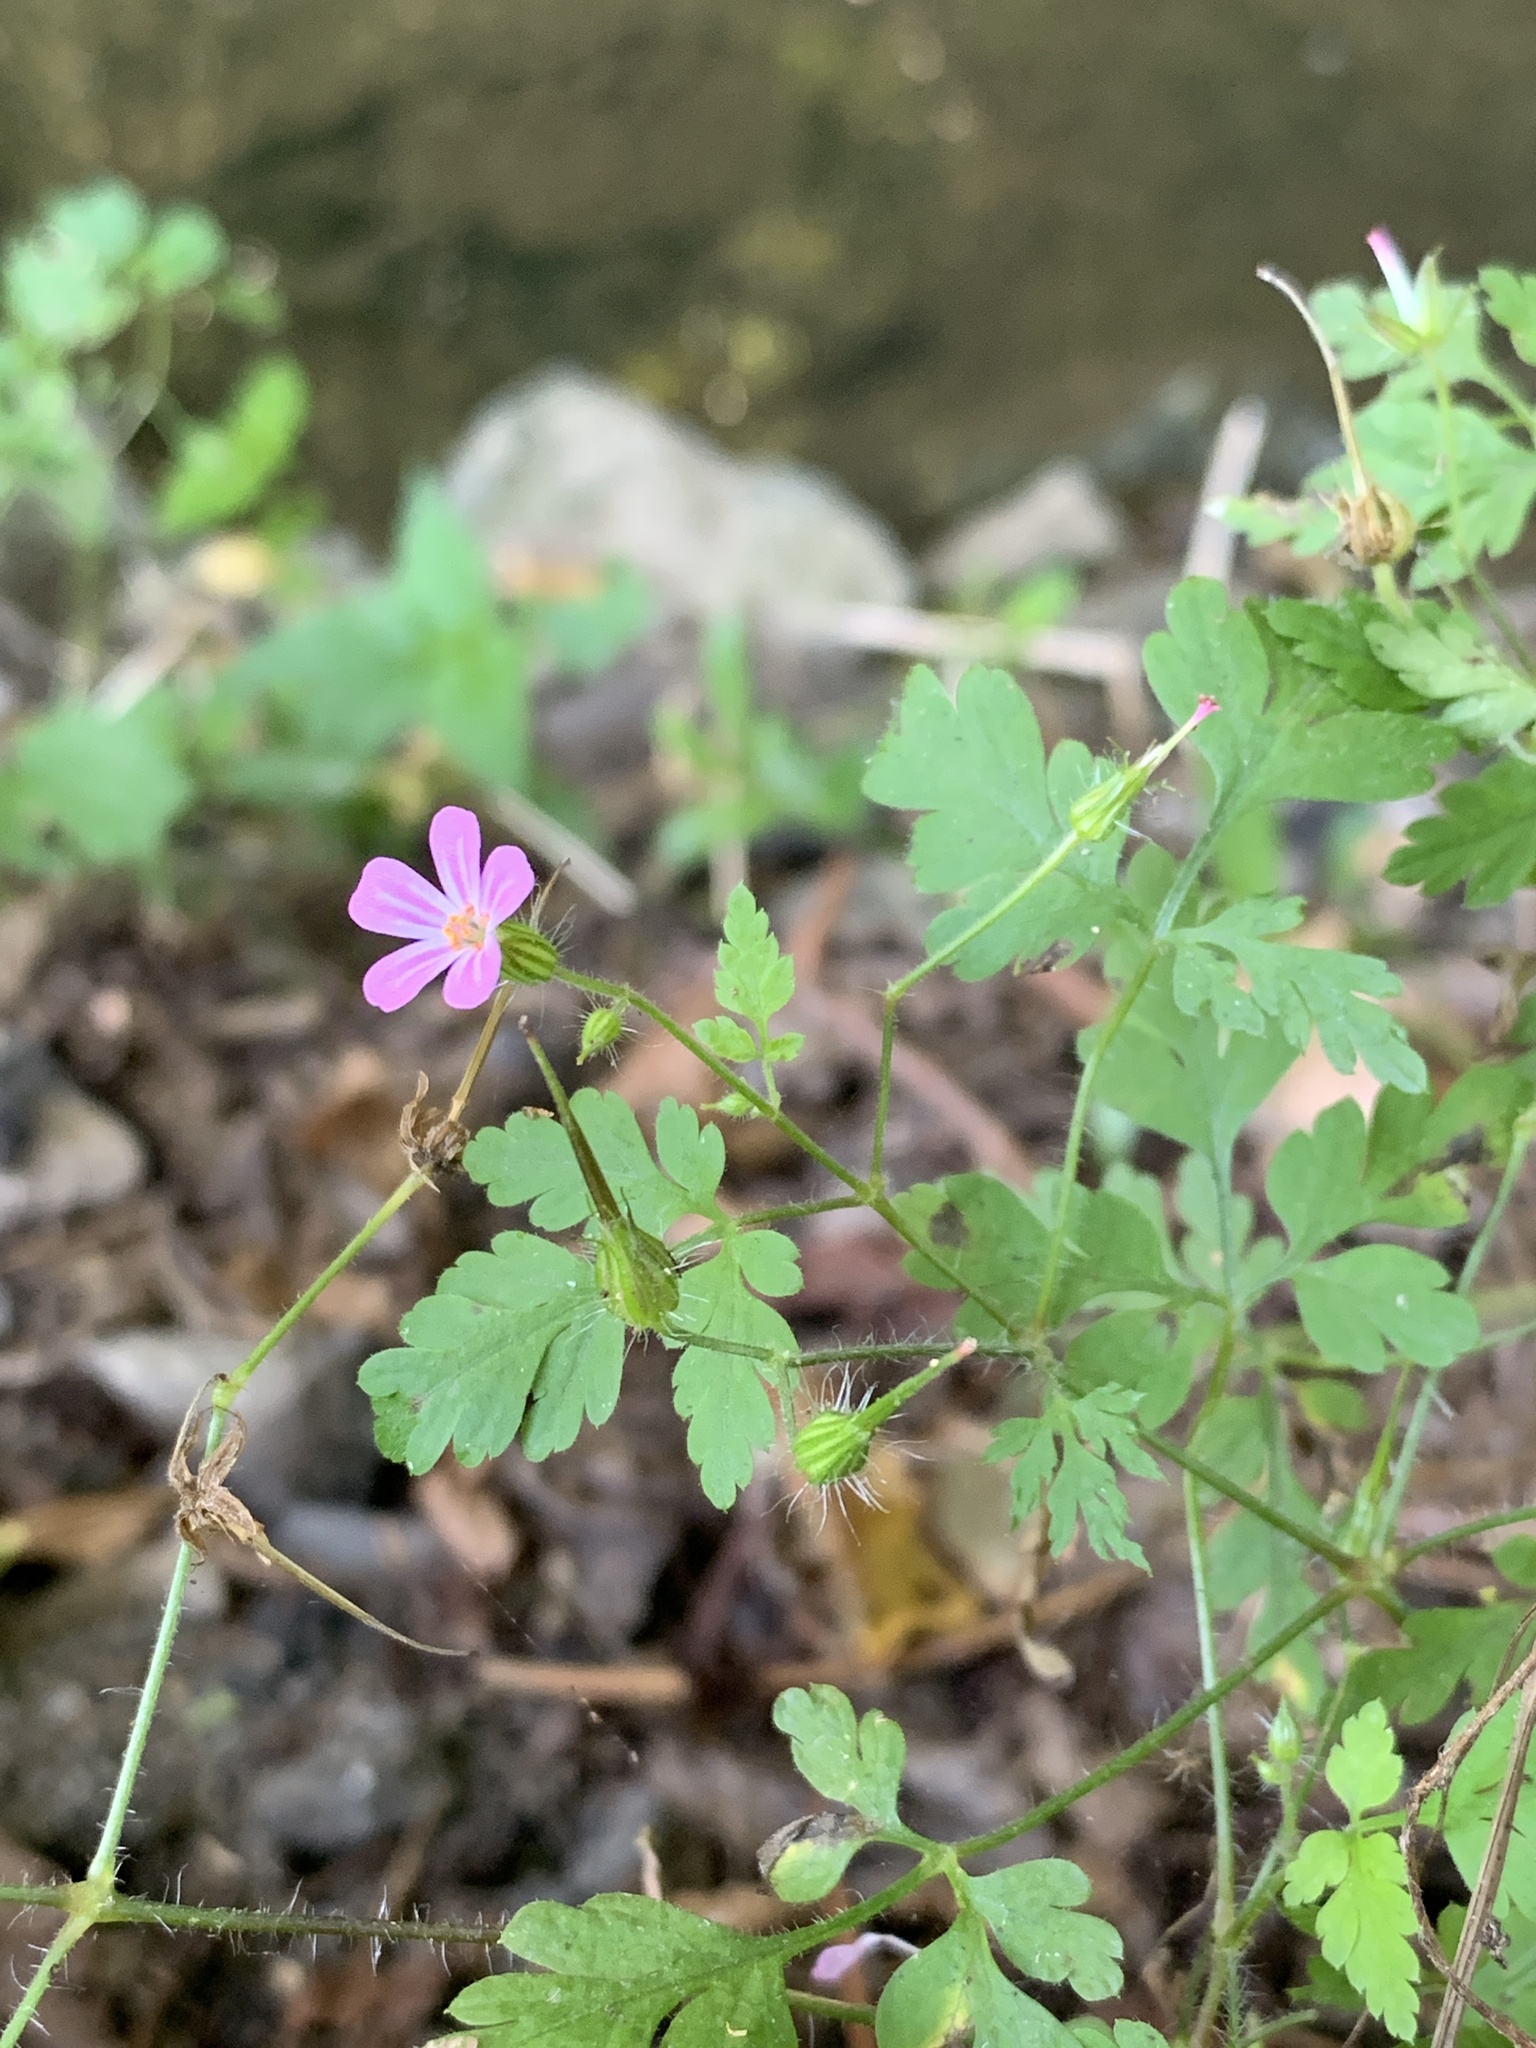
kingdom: Plantae
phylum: Tracheophyta
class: Magnoliopsida
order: Geraniales
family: Geraniaceae
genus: Geranium
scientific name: Geranium robertianum
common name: Herb-robert
